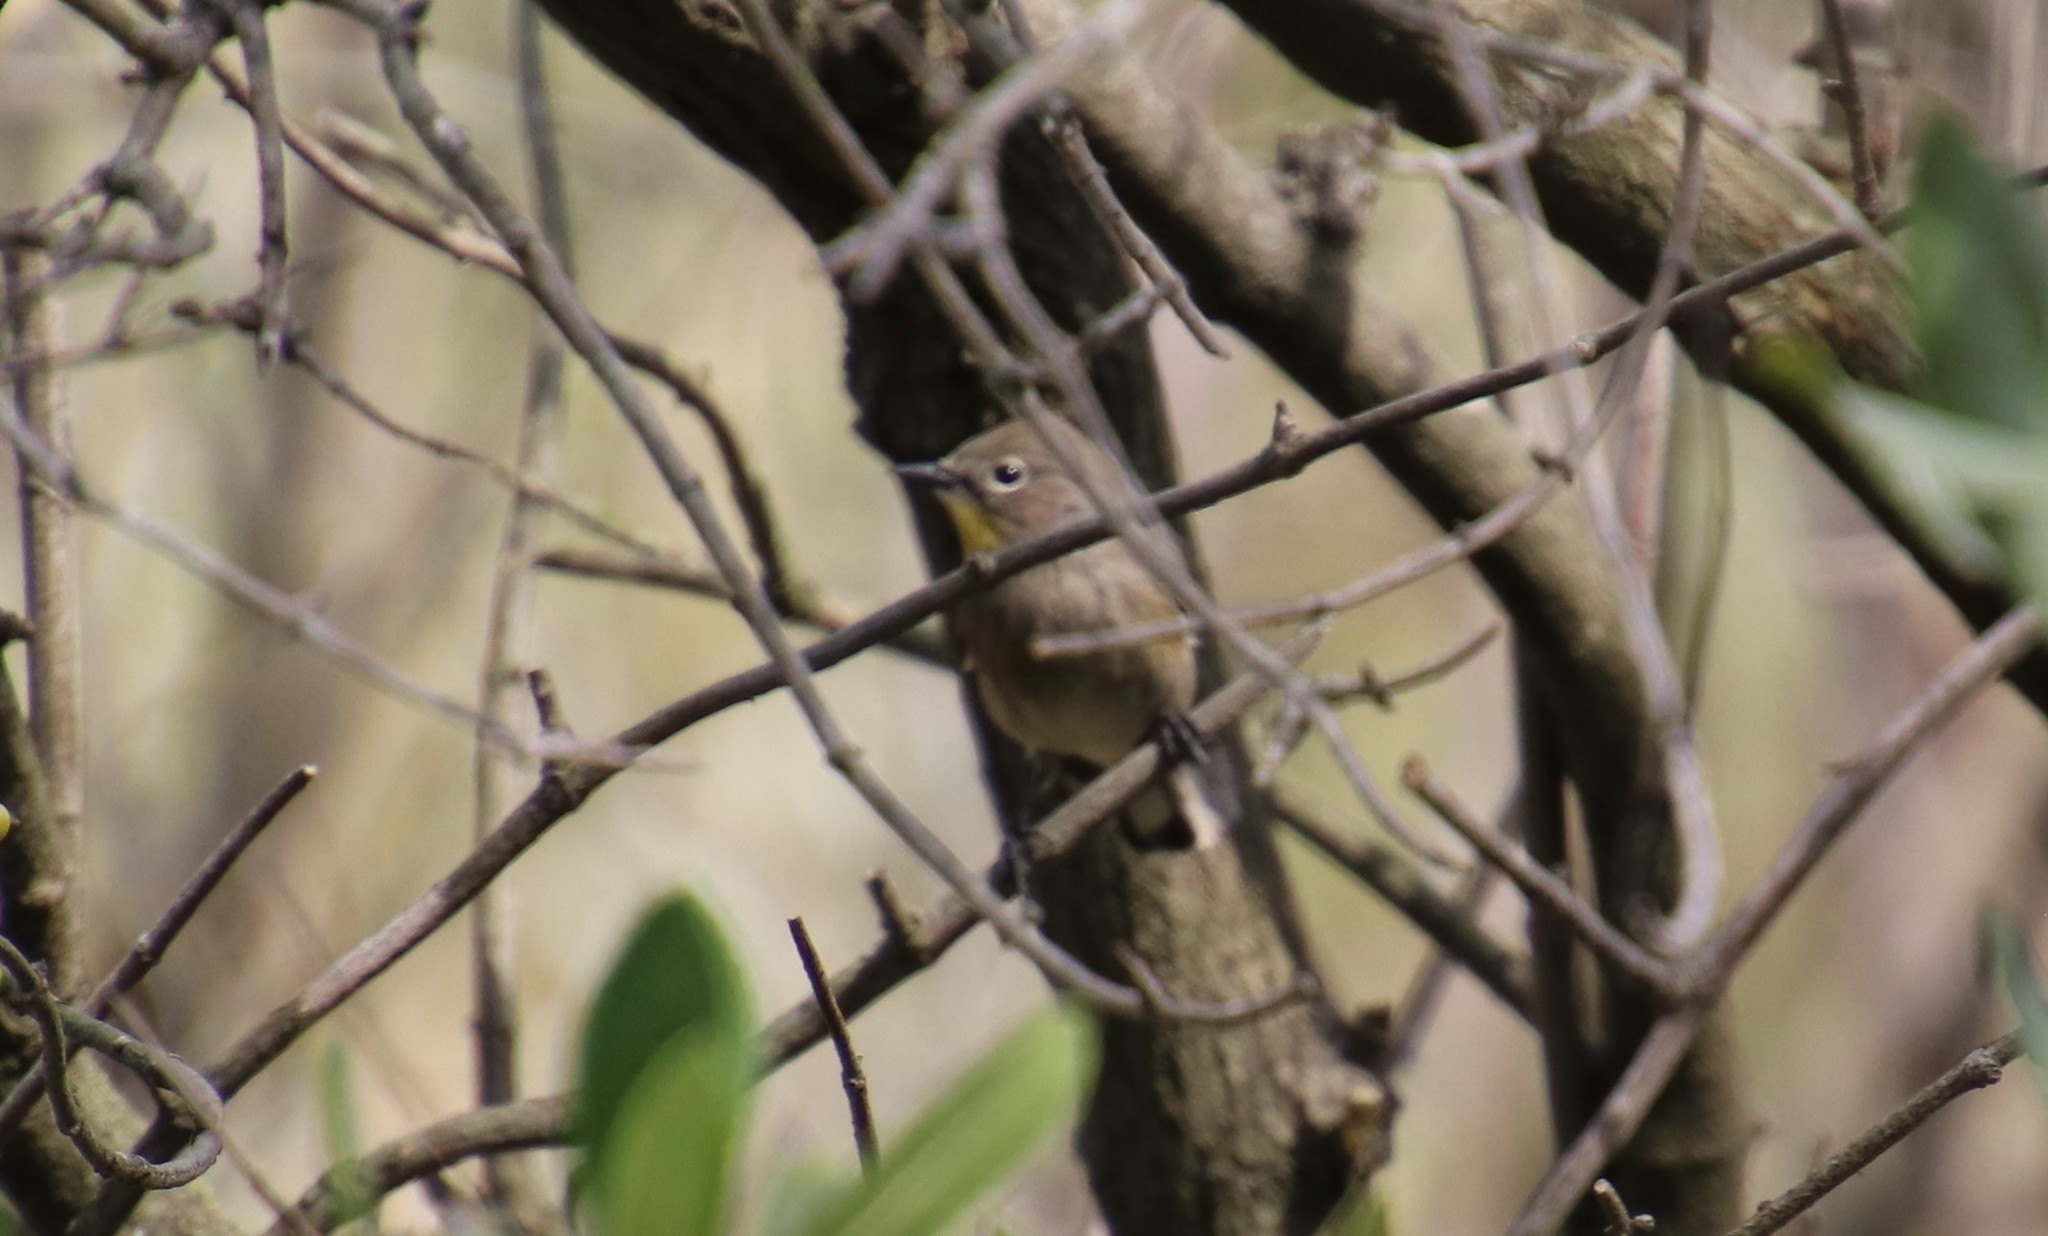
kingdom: Animalia
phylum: Chordata
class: Aves
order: Passeriformes
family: Parulidae
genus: Setophaga
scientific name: Setophaga auduboni
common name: Audubon's warbler
